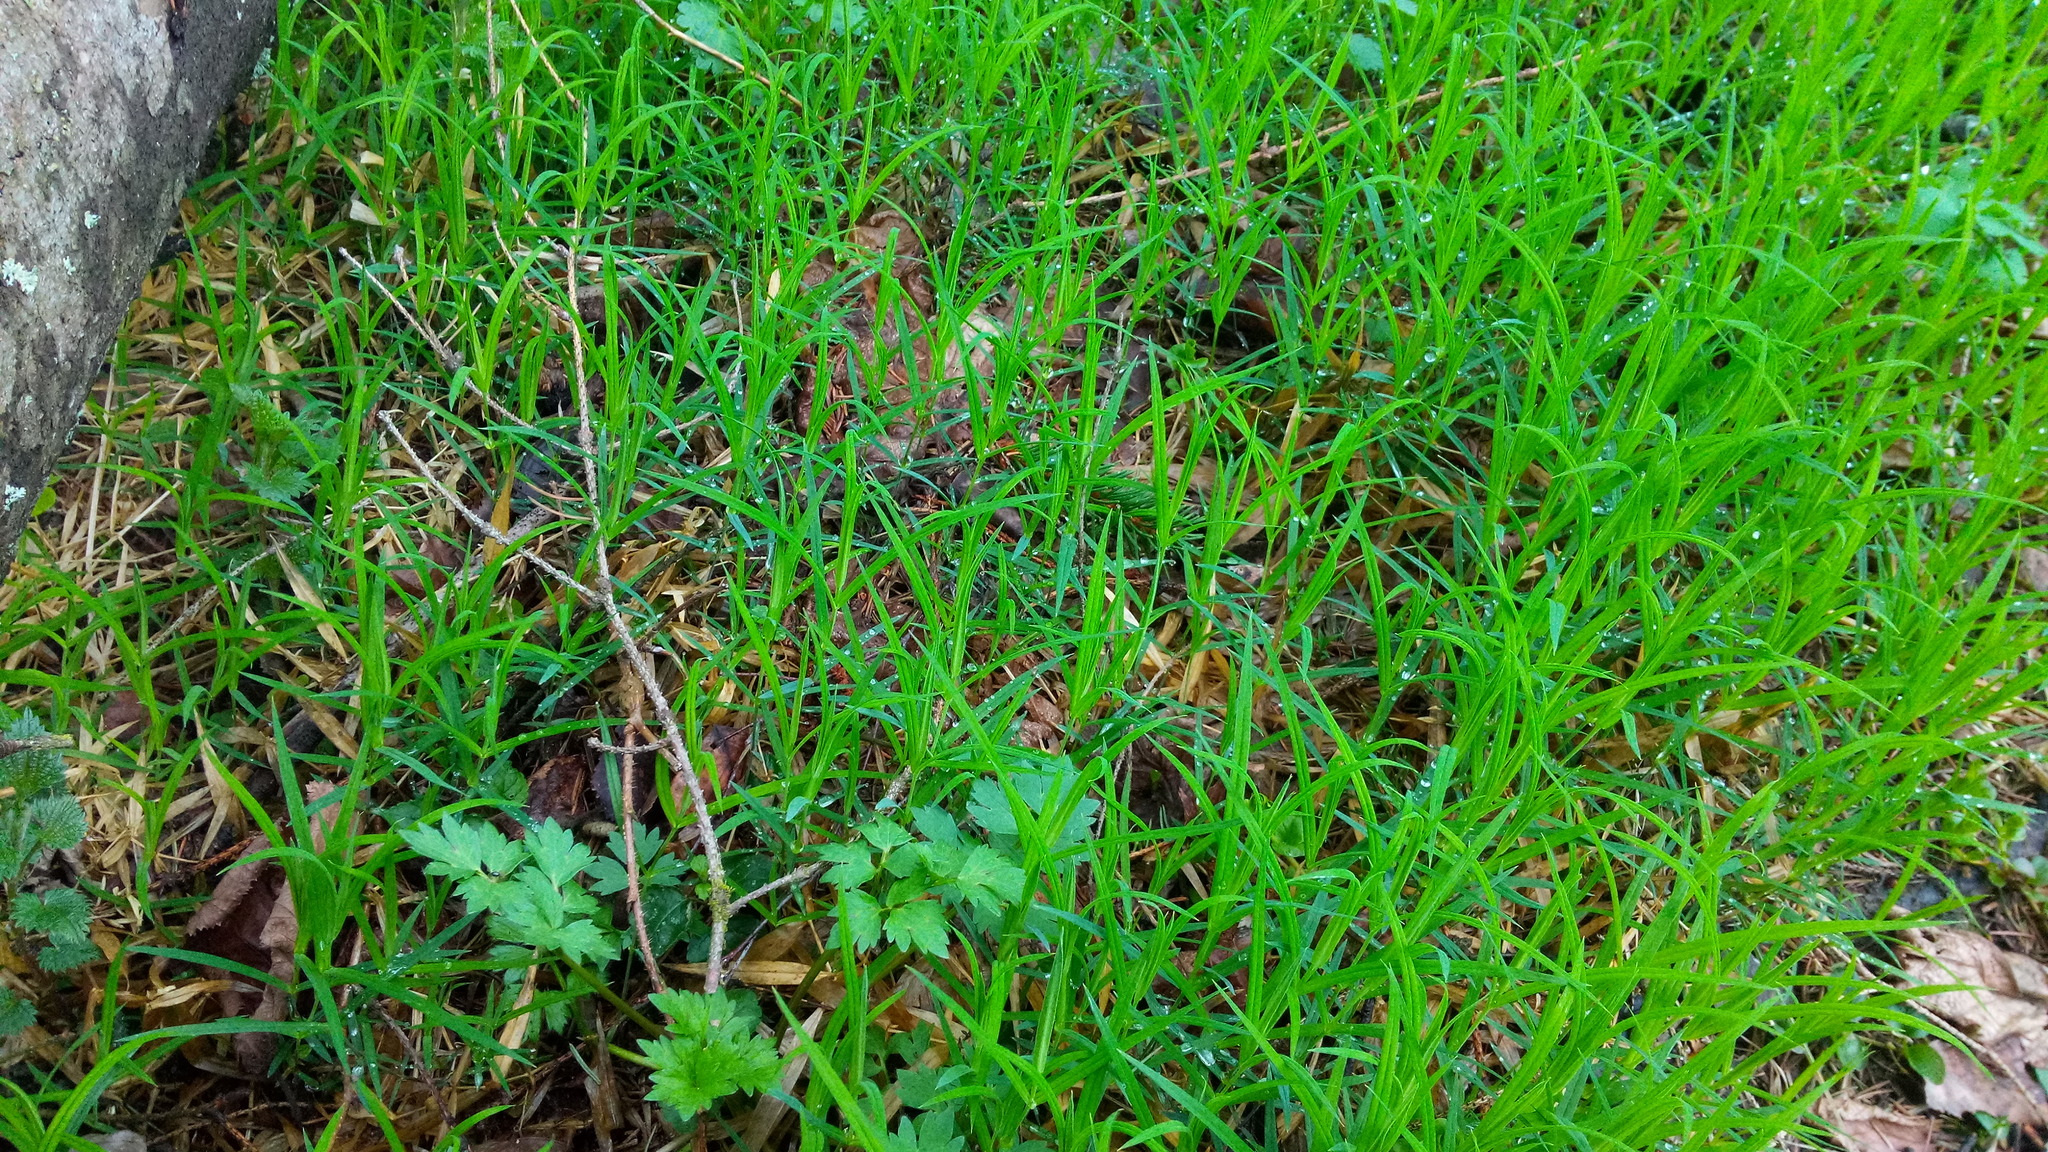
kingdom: Plantae
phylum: Tracheophyta
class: Magnoliopsida
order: Ranunculales
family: Ranunculaceae
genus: Ranunculus
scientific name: Ranunculus repens
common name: Creeping buttercup
